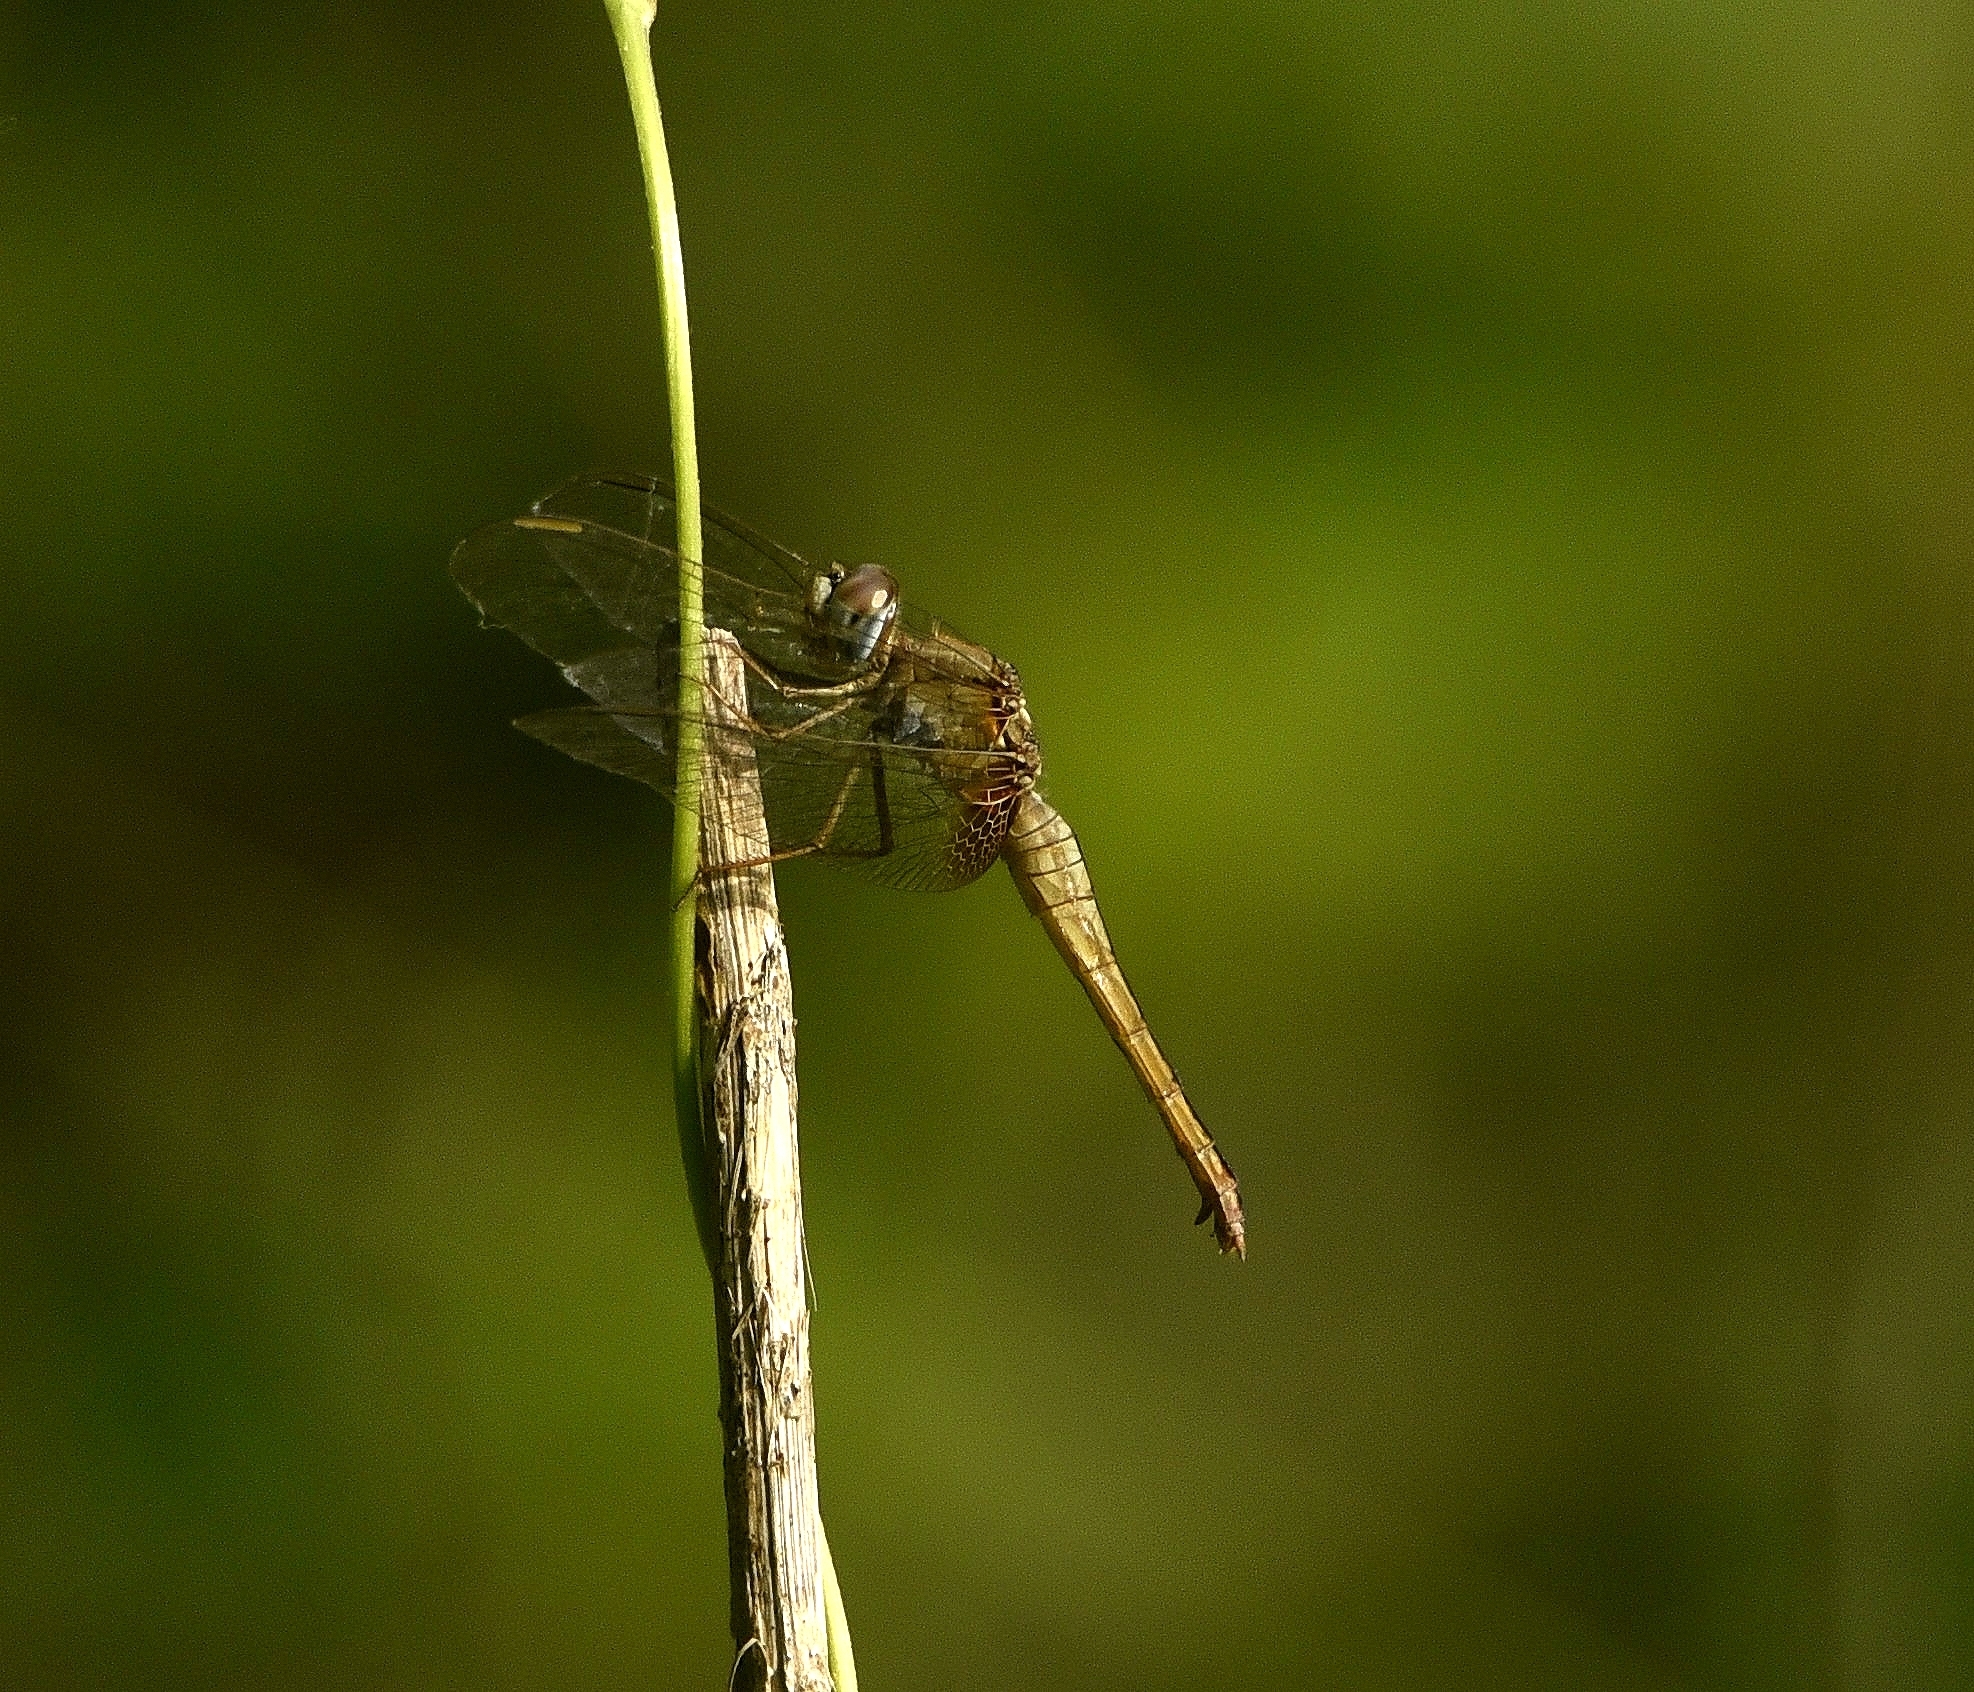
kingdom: Animalia
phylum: Arthropoda
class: Insecta
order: Odonata
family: Libellulidae
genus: Crocothemis
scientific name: Crocothemis servilia
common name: Scarlet skimmer
